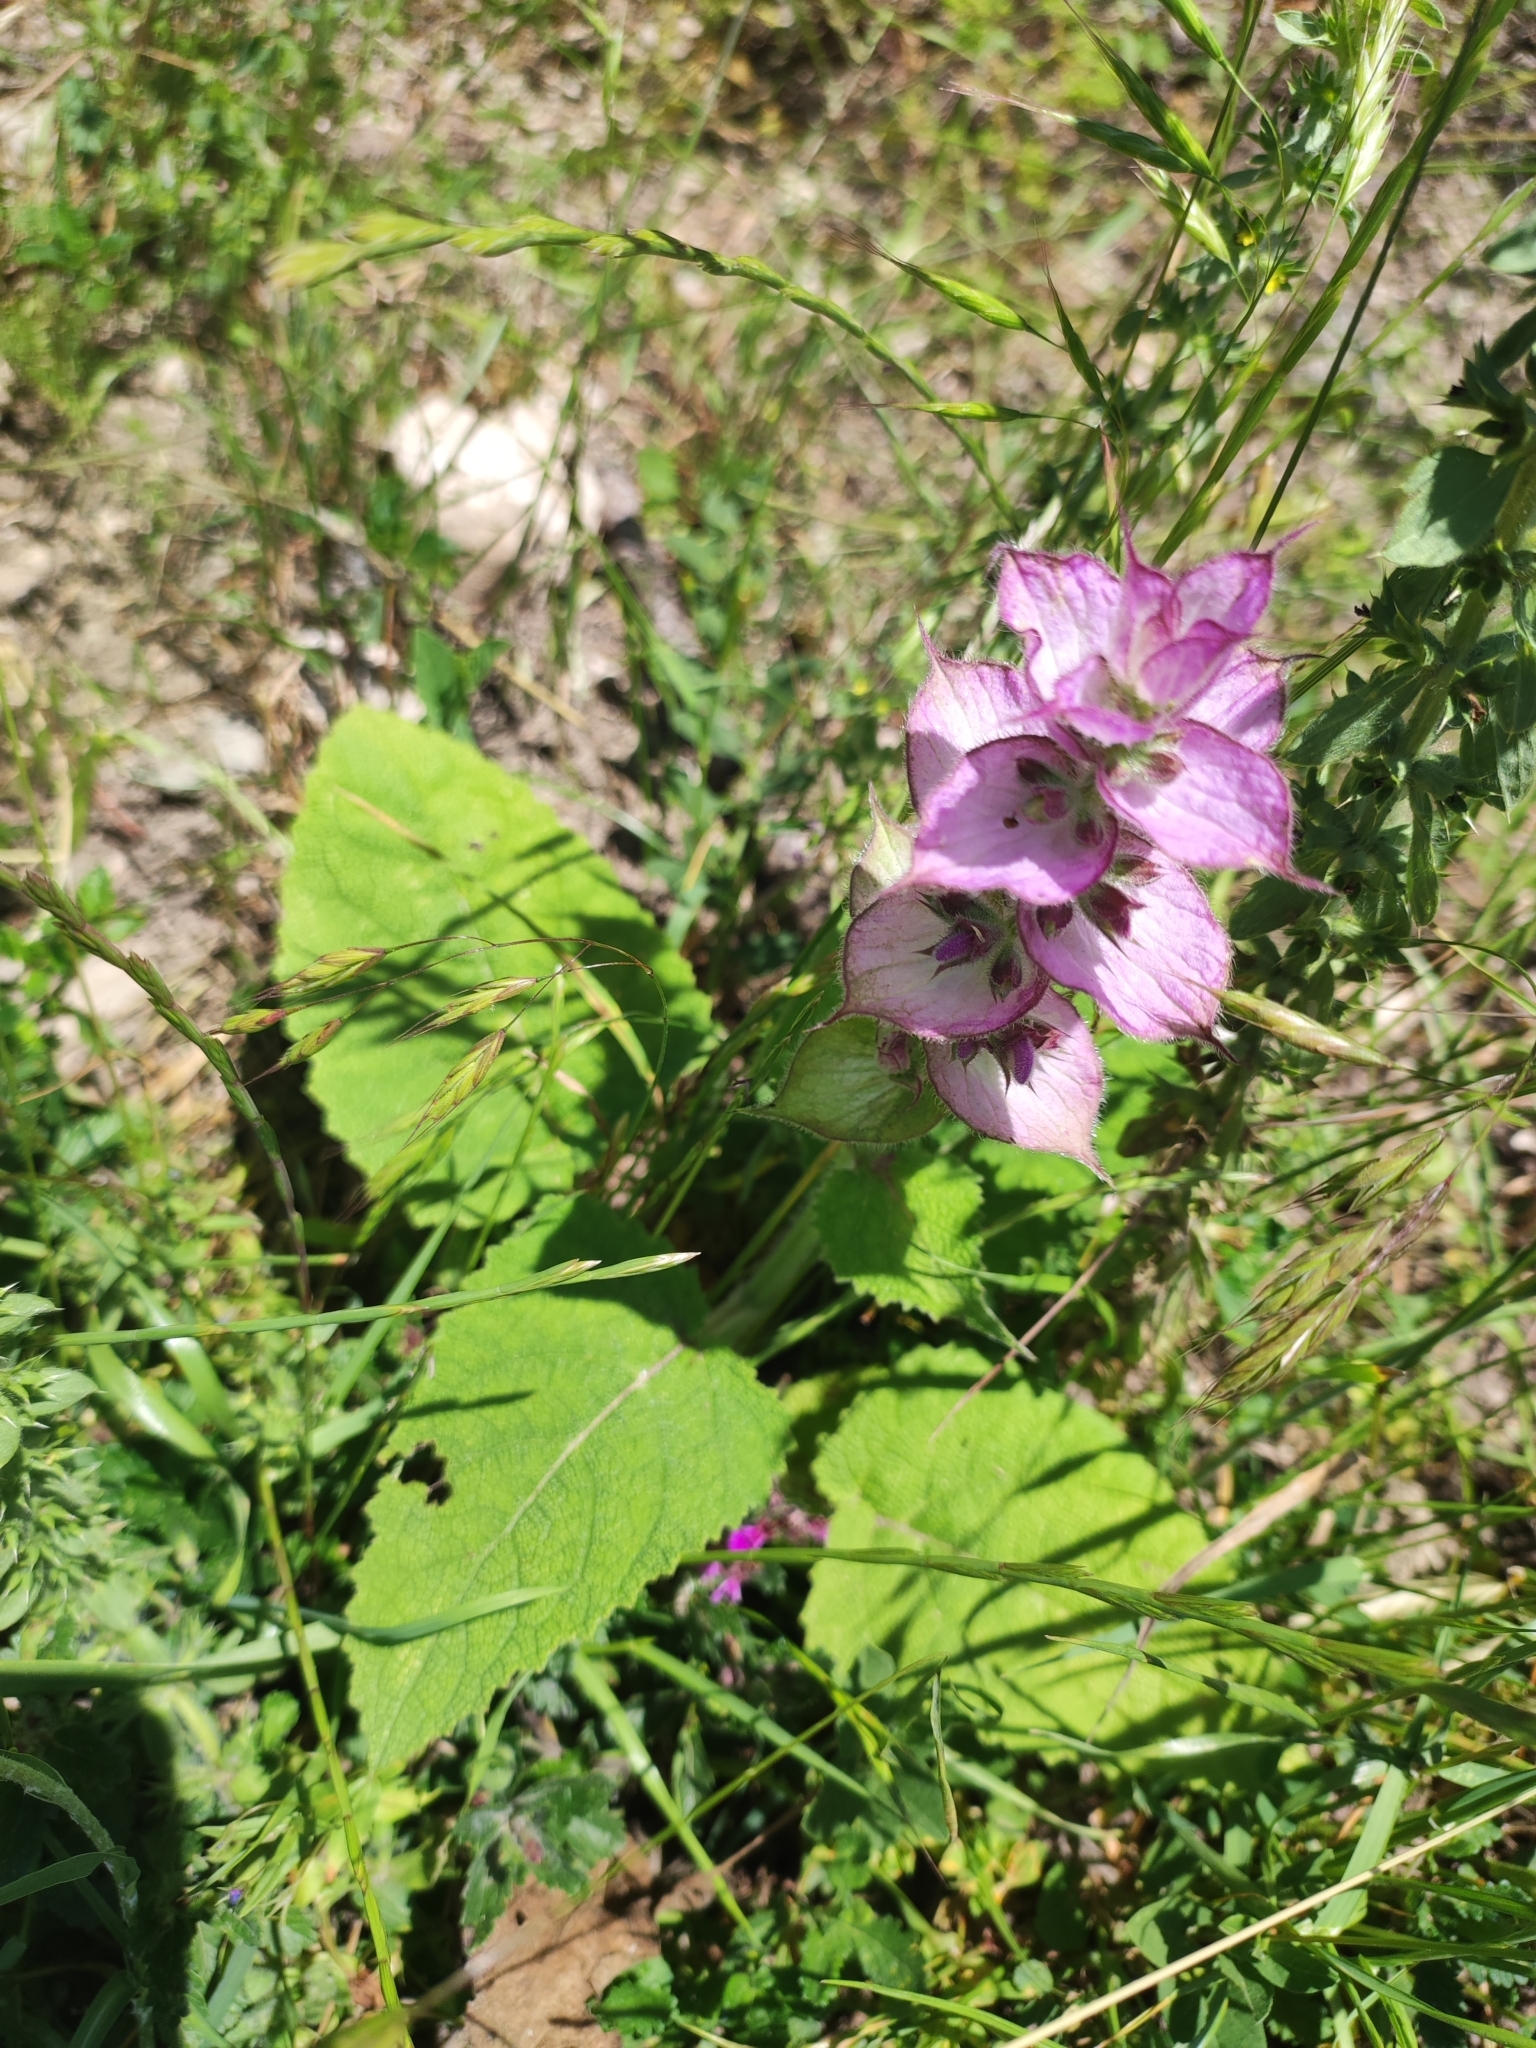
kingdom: Plantae
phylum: Tracheophyta
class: Magnoliopsida
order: Lamiales
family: Lamiaceae
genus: Salvia
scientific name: Salvia sclarea
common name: Clary
